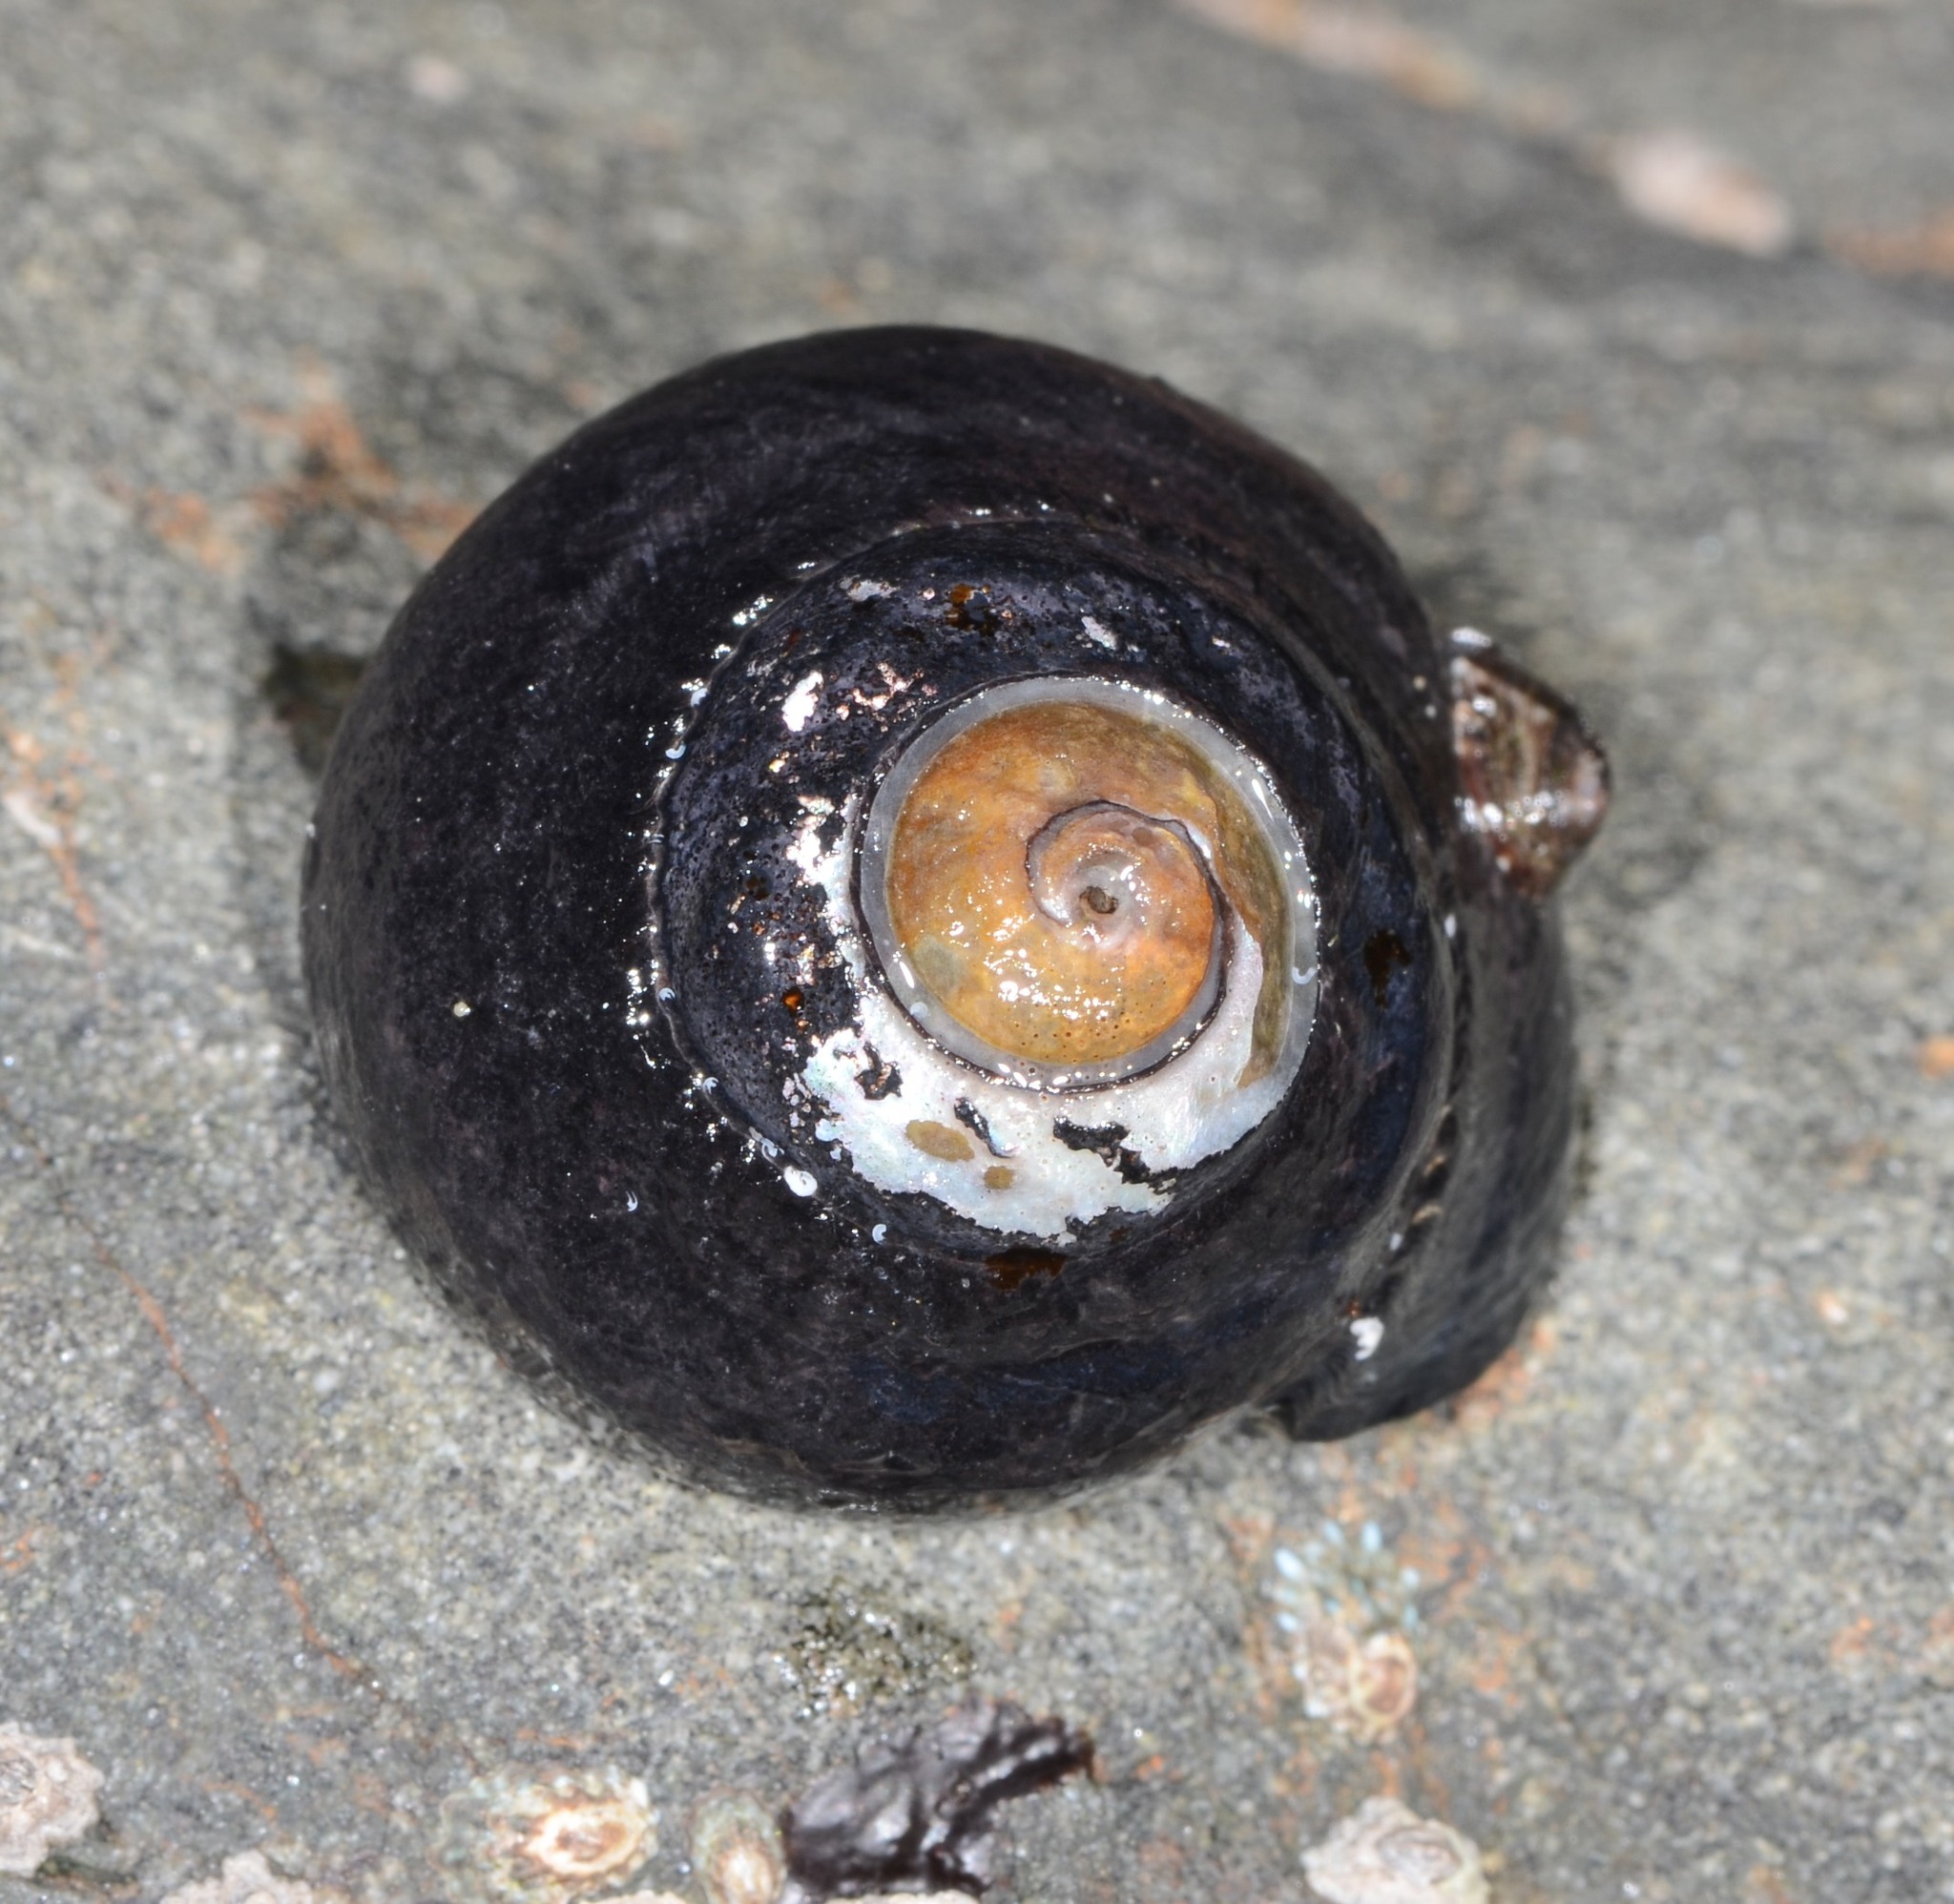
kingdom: Animalia
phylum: Mollusca
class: Gastropoda
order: Trochida
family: Tegulidae
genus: Tegula
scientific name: Tegula funebralis
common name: Black tegula
